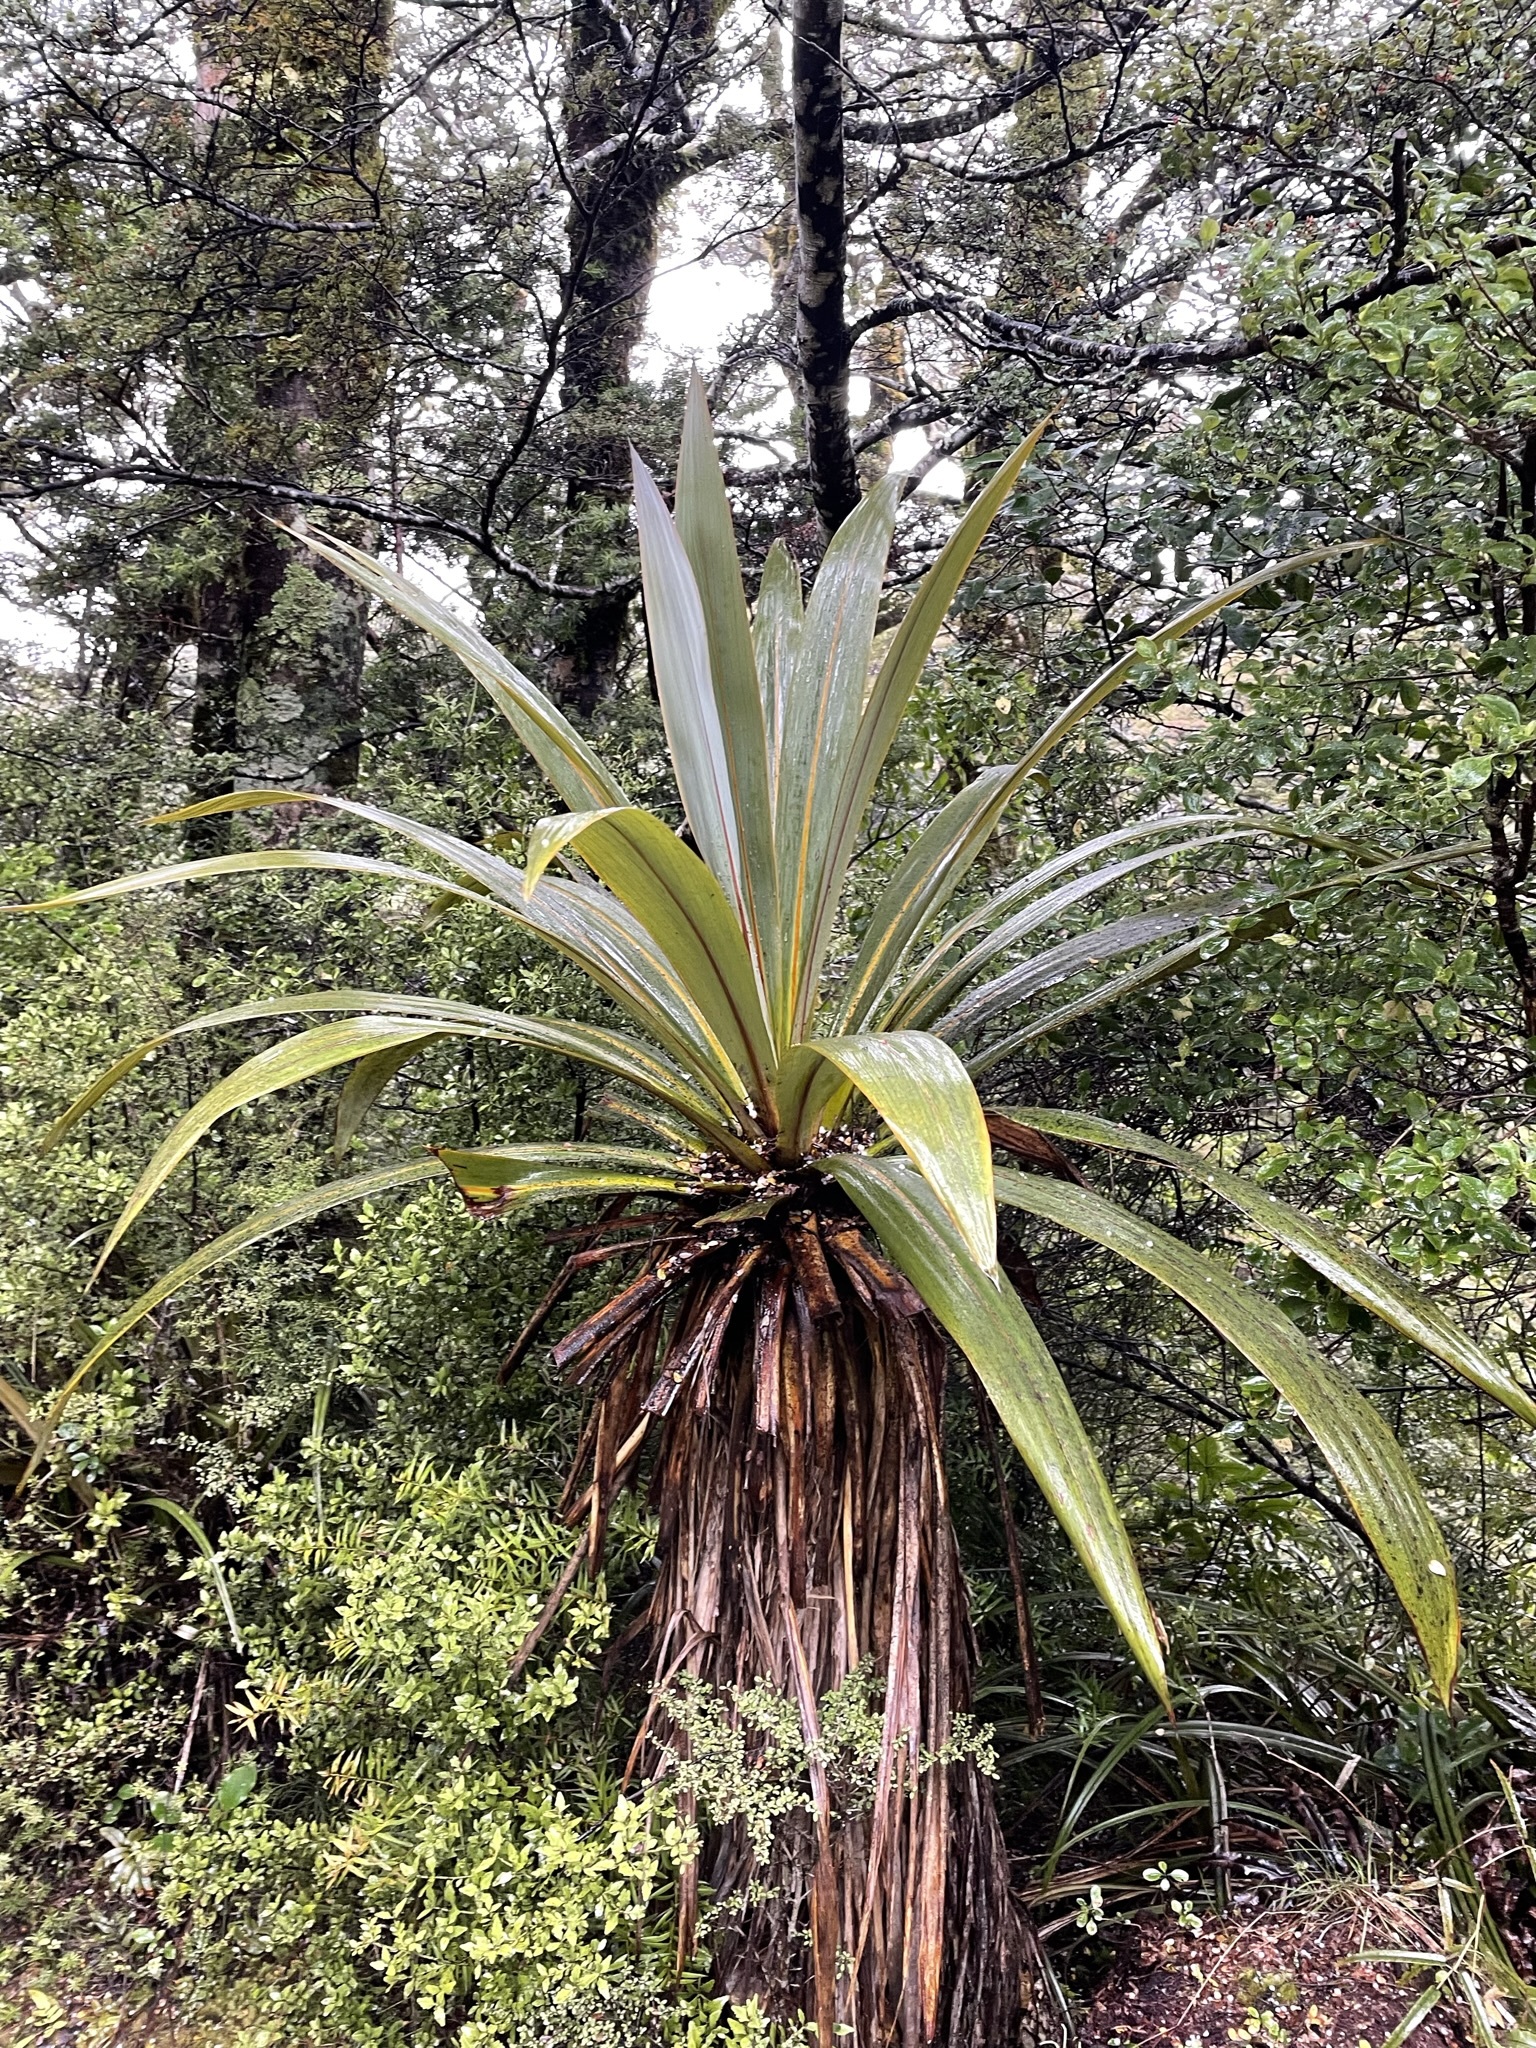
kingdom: Plantae
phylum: Tracheophyta
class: Liliopsida
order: Asparagales
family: Asparagaceae
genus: Cordyline
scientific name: Cordyline indivisa
